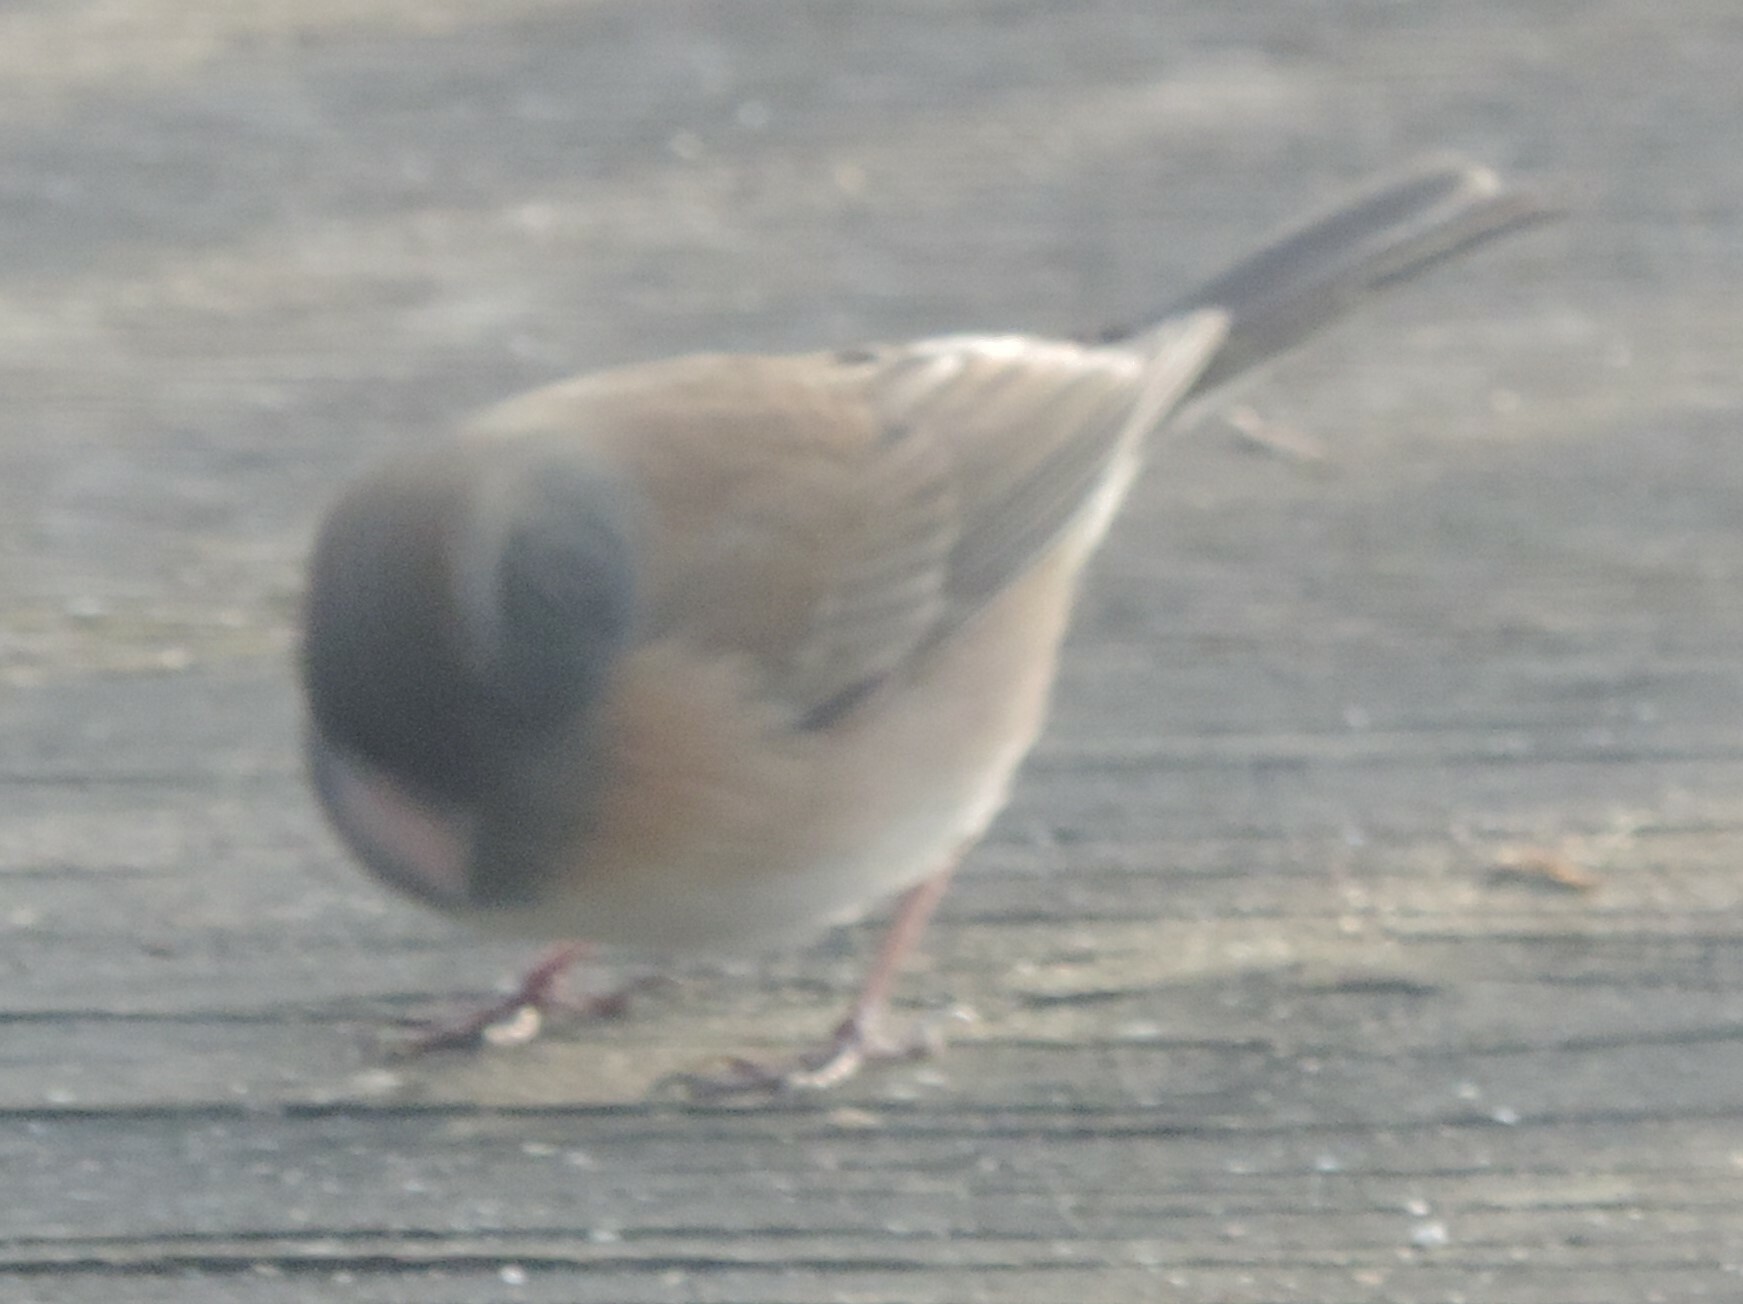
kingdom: Animalia
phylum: Chordata
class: Aves
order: Passeriformes
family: Passerellidae
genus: Junco
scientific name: Junco hyemalis
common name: Dark-eyed junco
